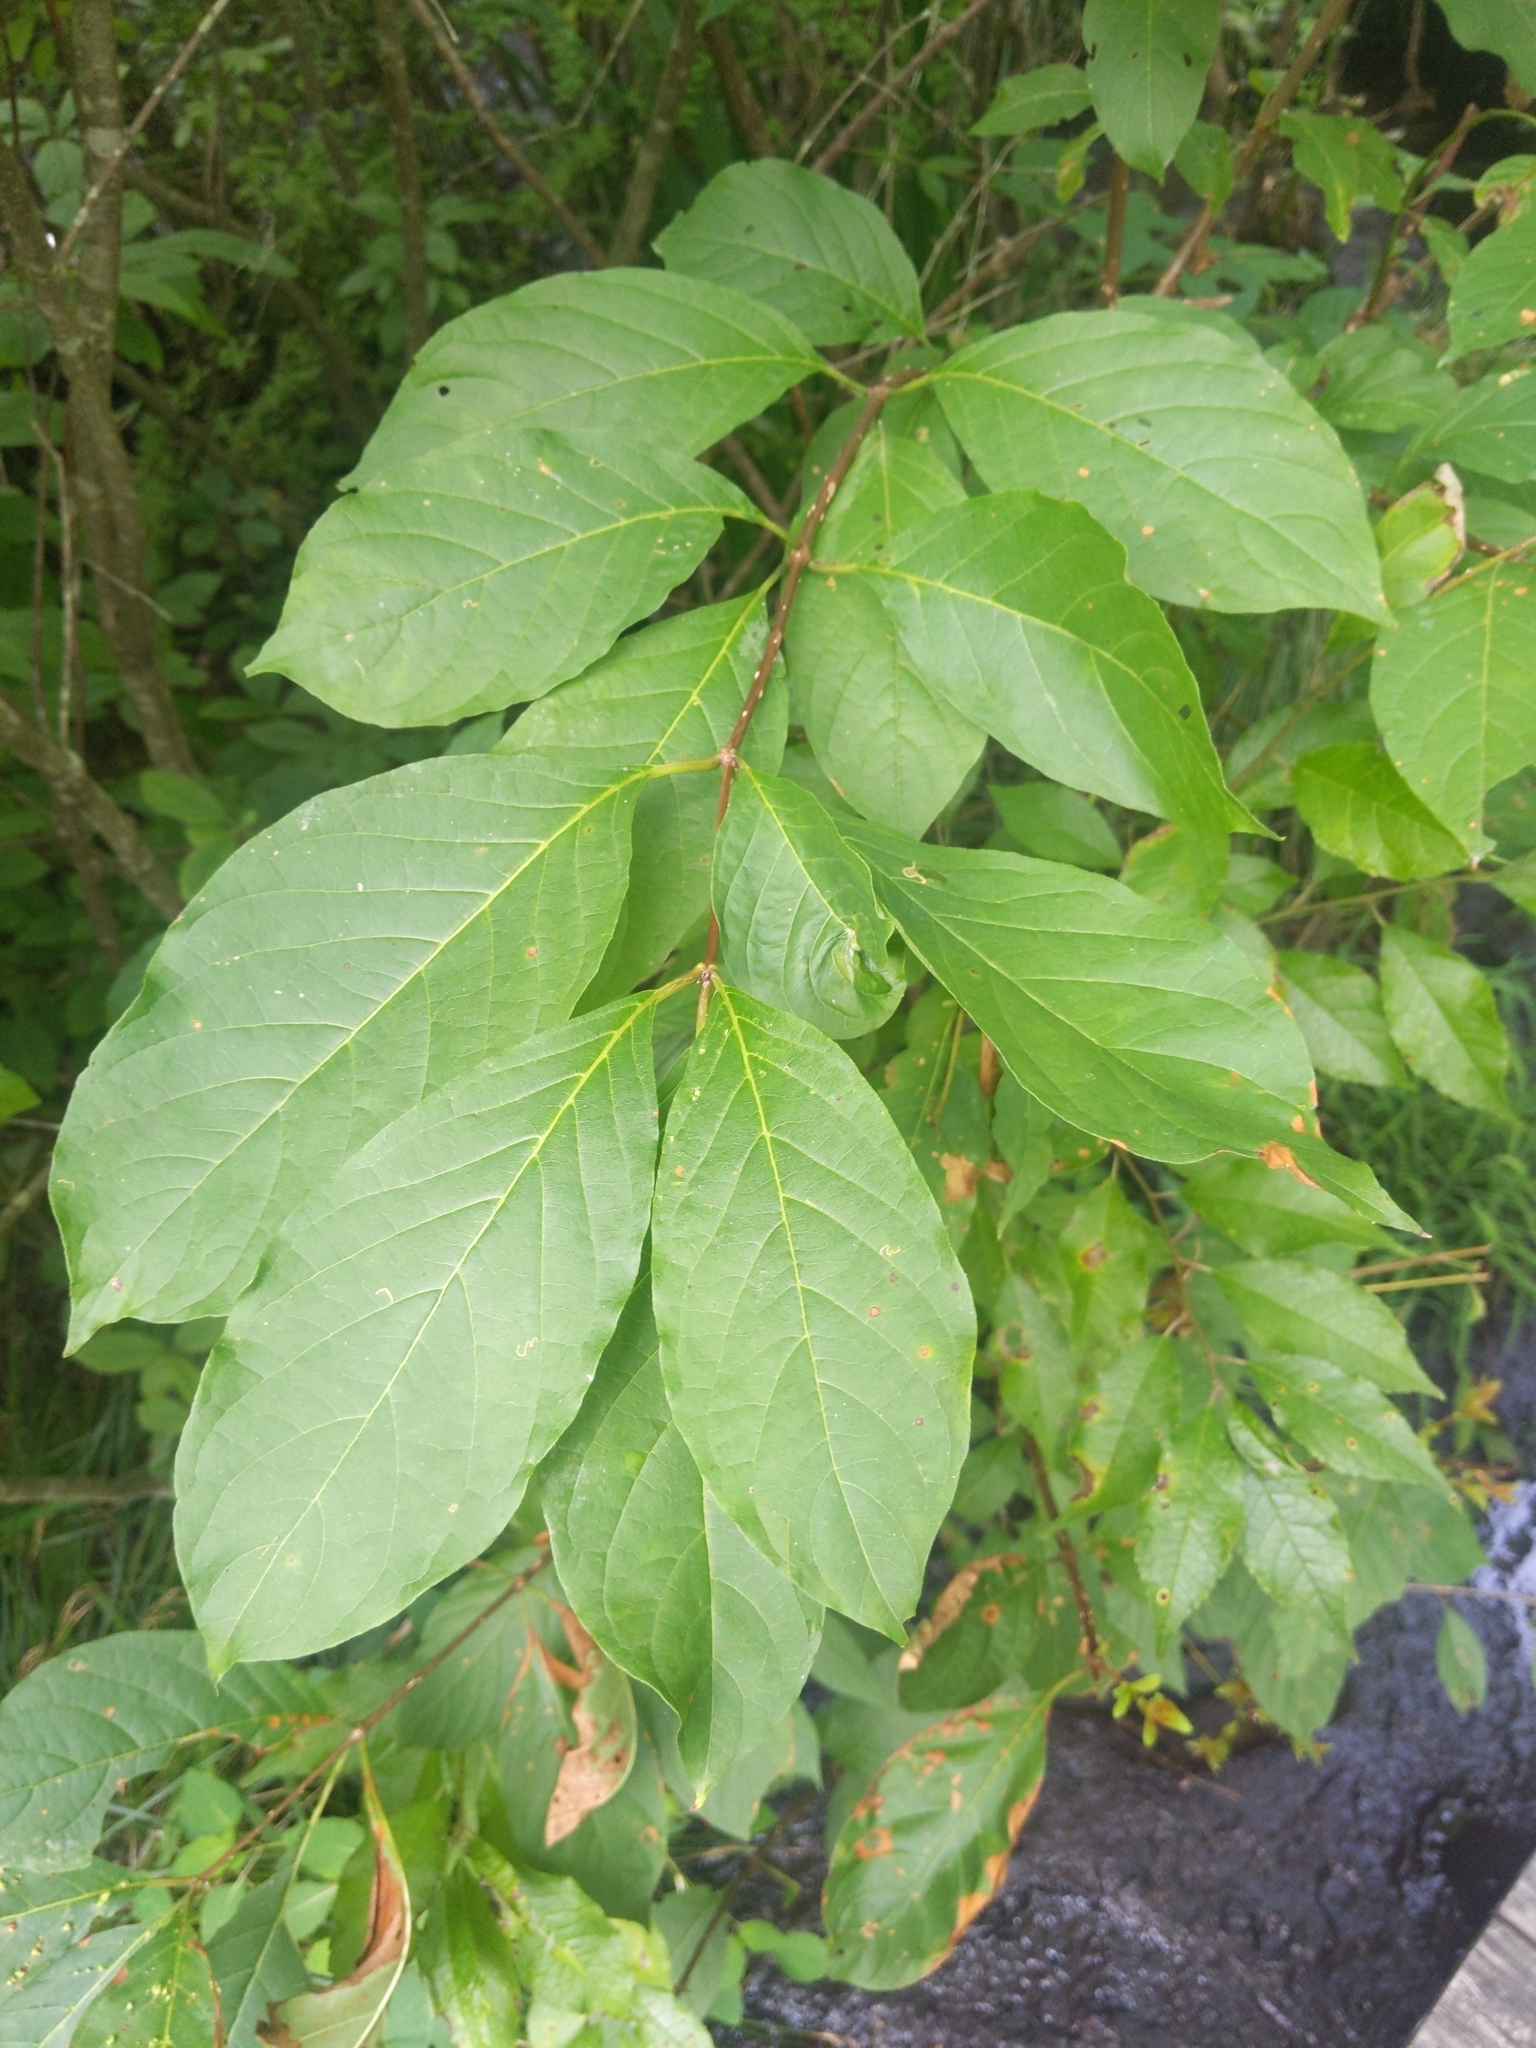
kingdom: Plantae
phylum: Tracheophyta
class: Magnoliopsida
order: Gentianales
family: Rubiaceae
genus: Cephalanthus
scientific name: Cephalanthus occidentalis
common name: Button-willow
